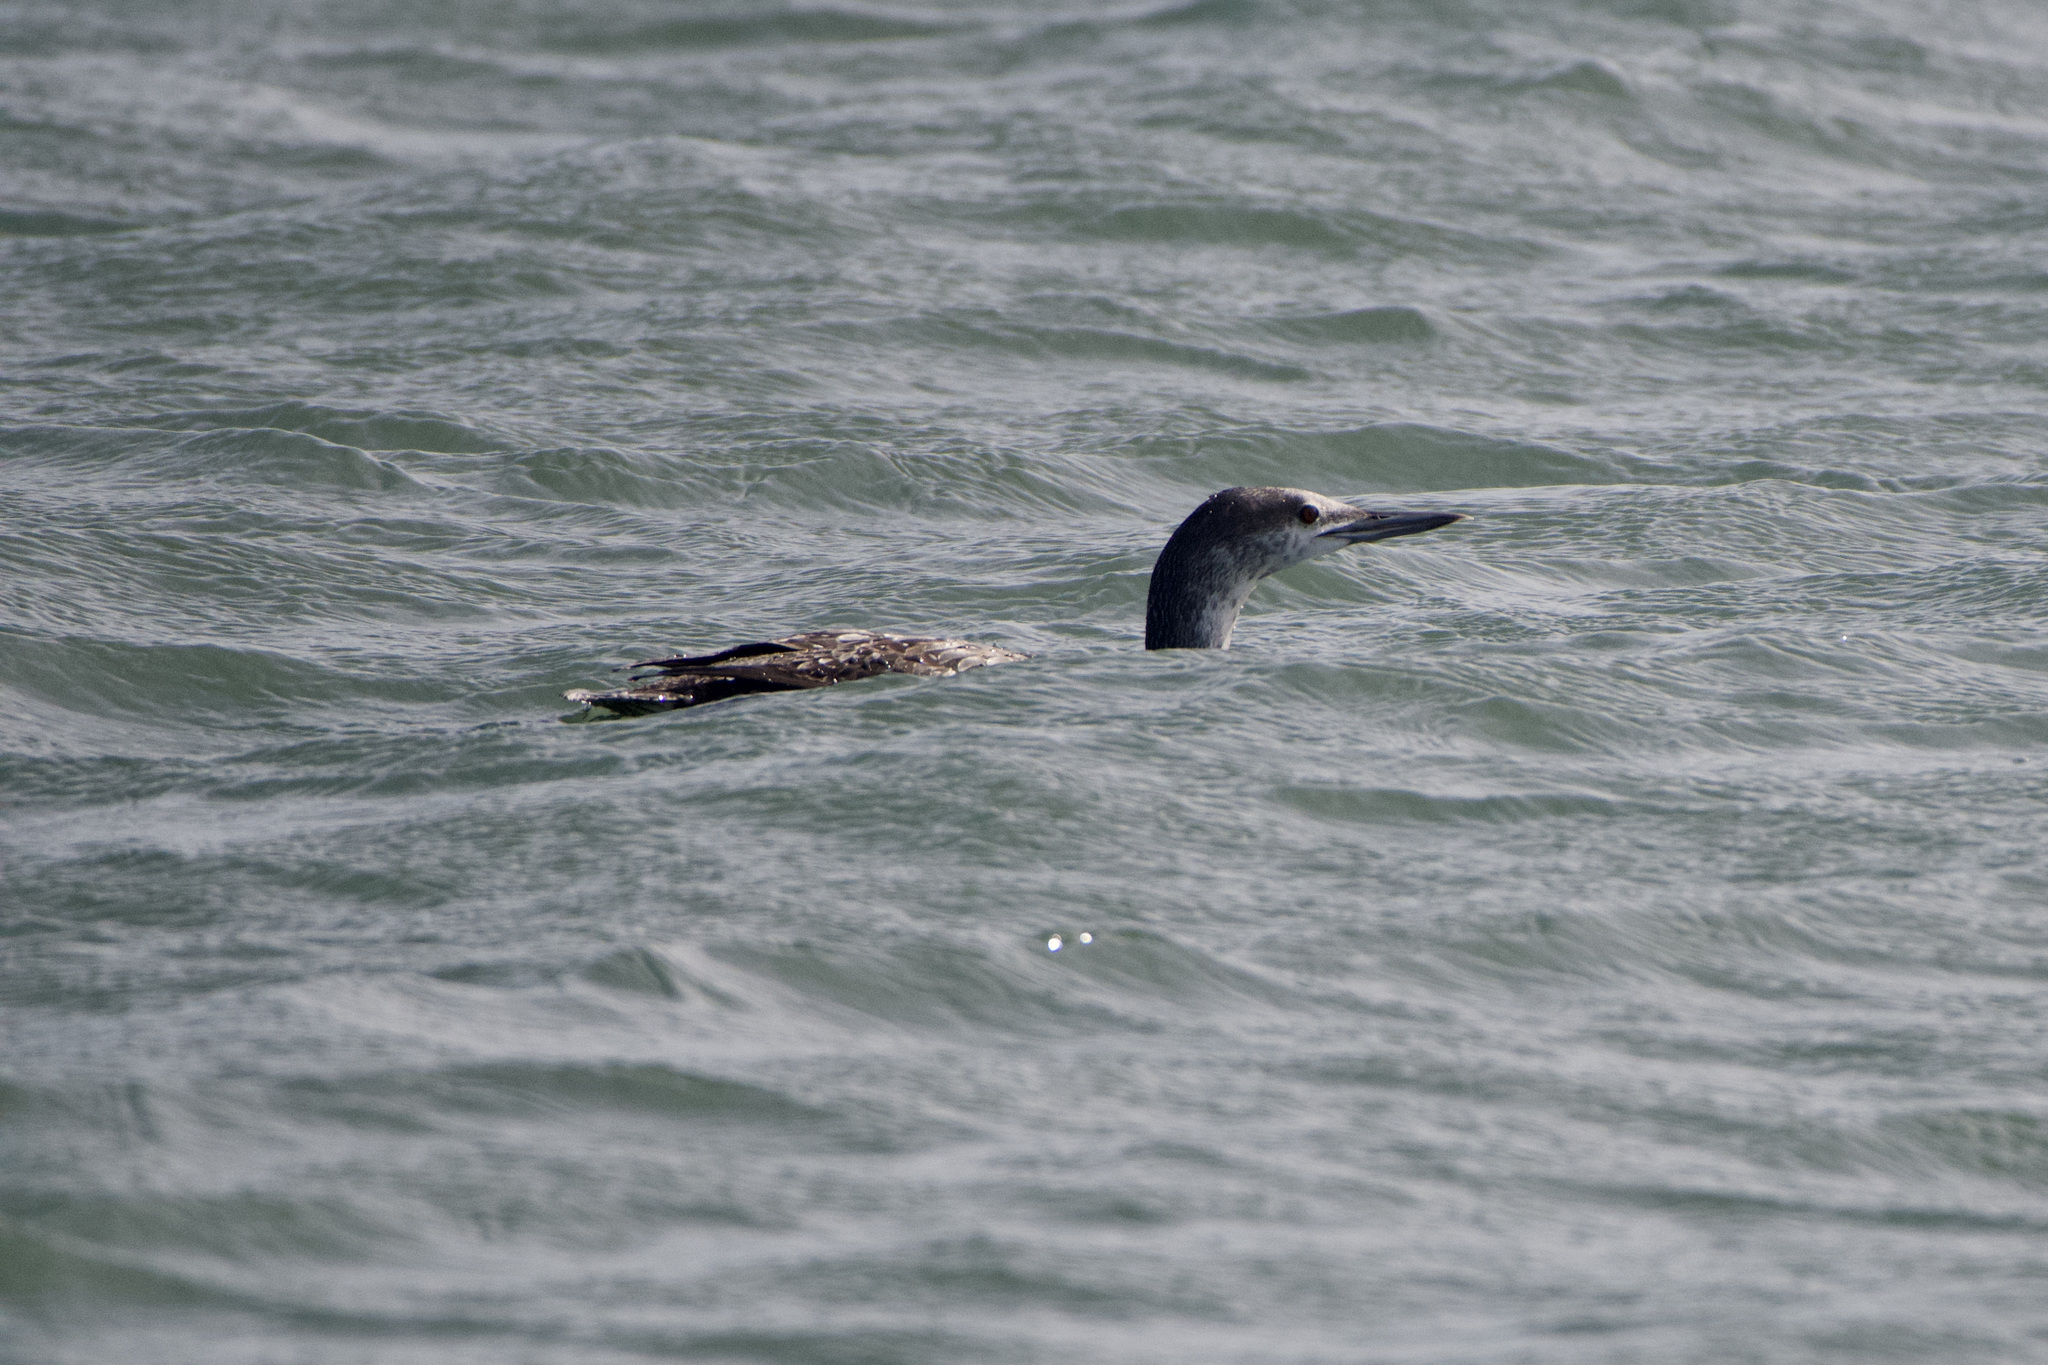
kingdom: Animalia
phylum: Chordata
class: Aves
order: Gaviiformes
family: Gaviidae
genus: Gavia
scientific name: Gavia stellata
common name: Red-throated loon
